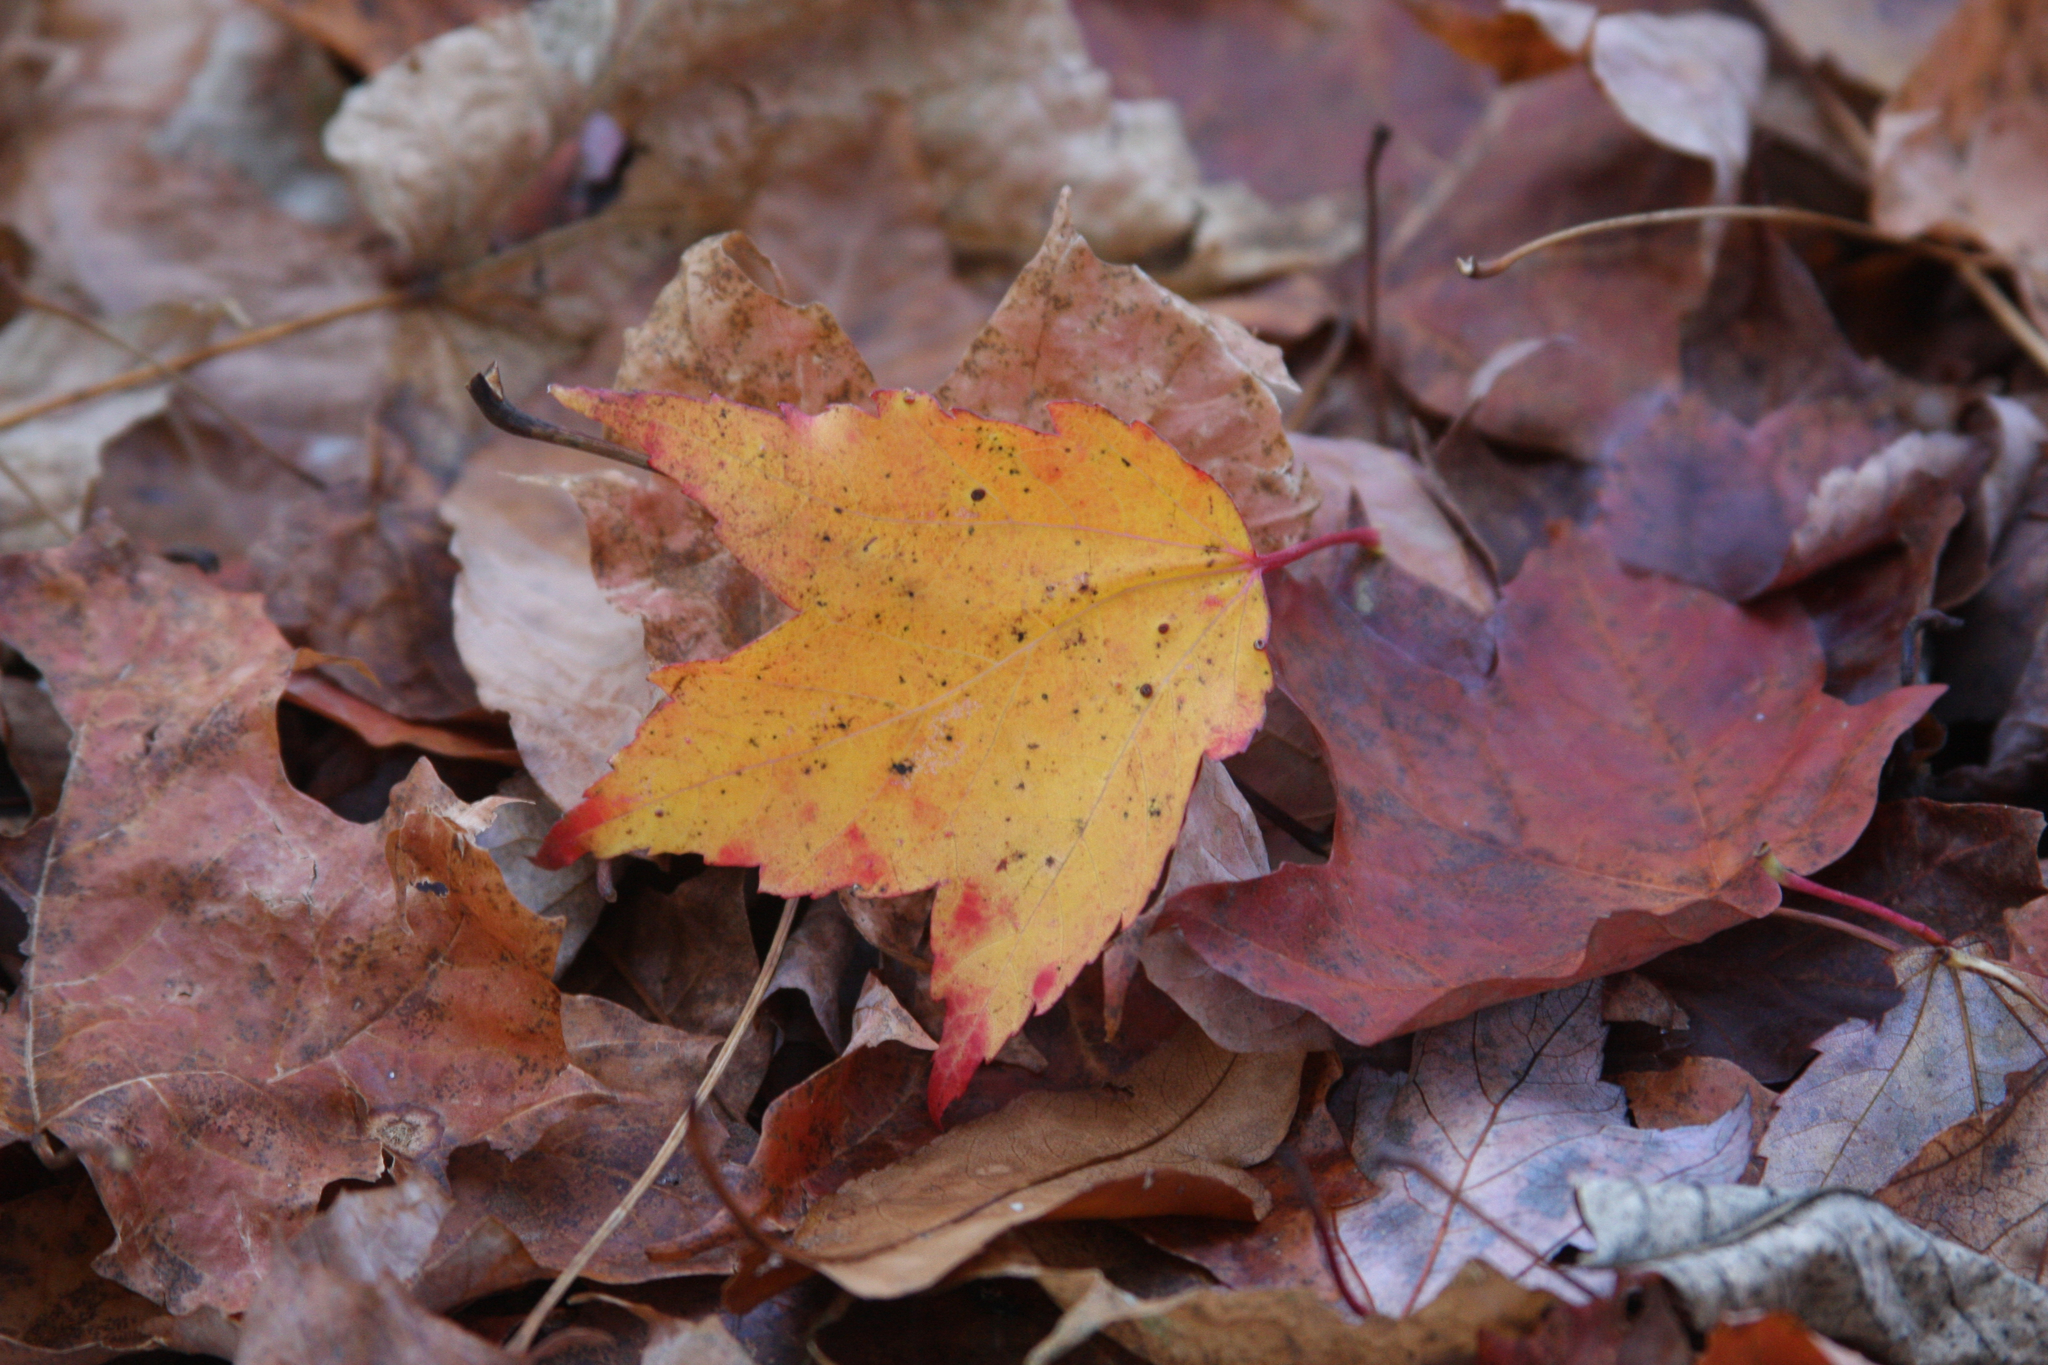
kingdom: Plantae
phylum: Tracheophyta
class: Magnoliopsida
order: Sapindales
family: Sapindaceae
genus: Acer
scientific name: Acer rubrum
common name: Red maple
